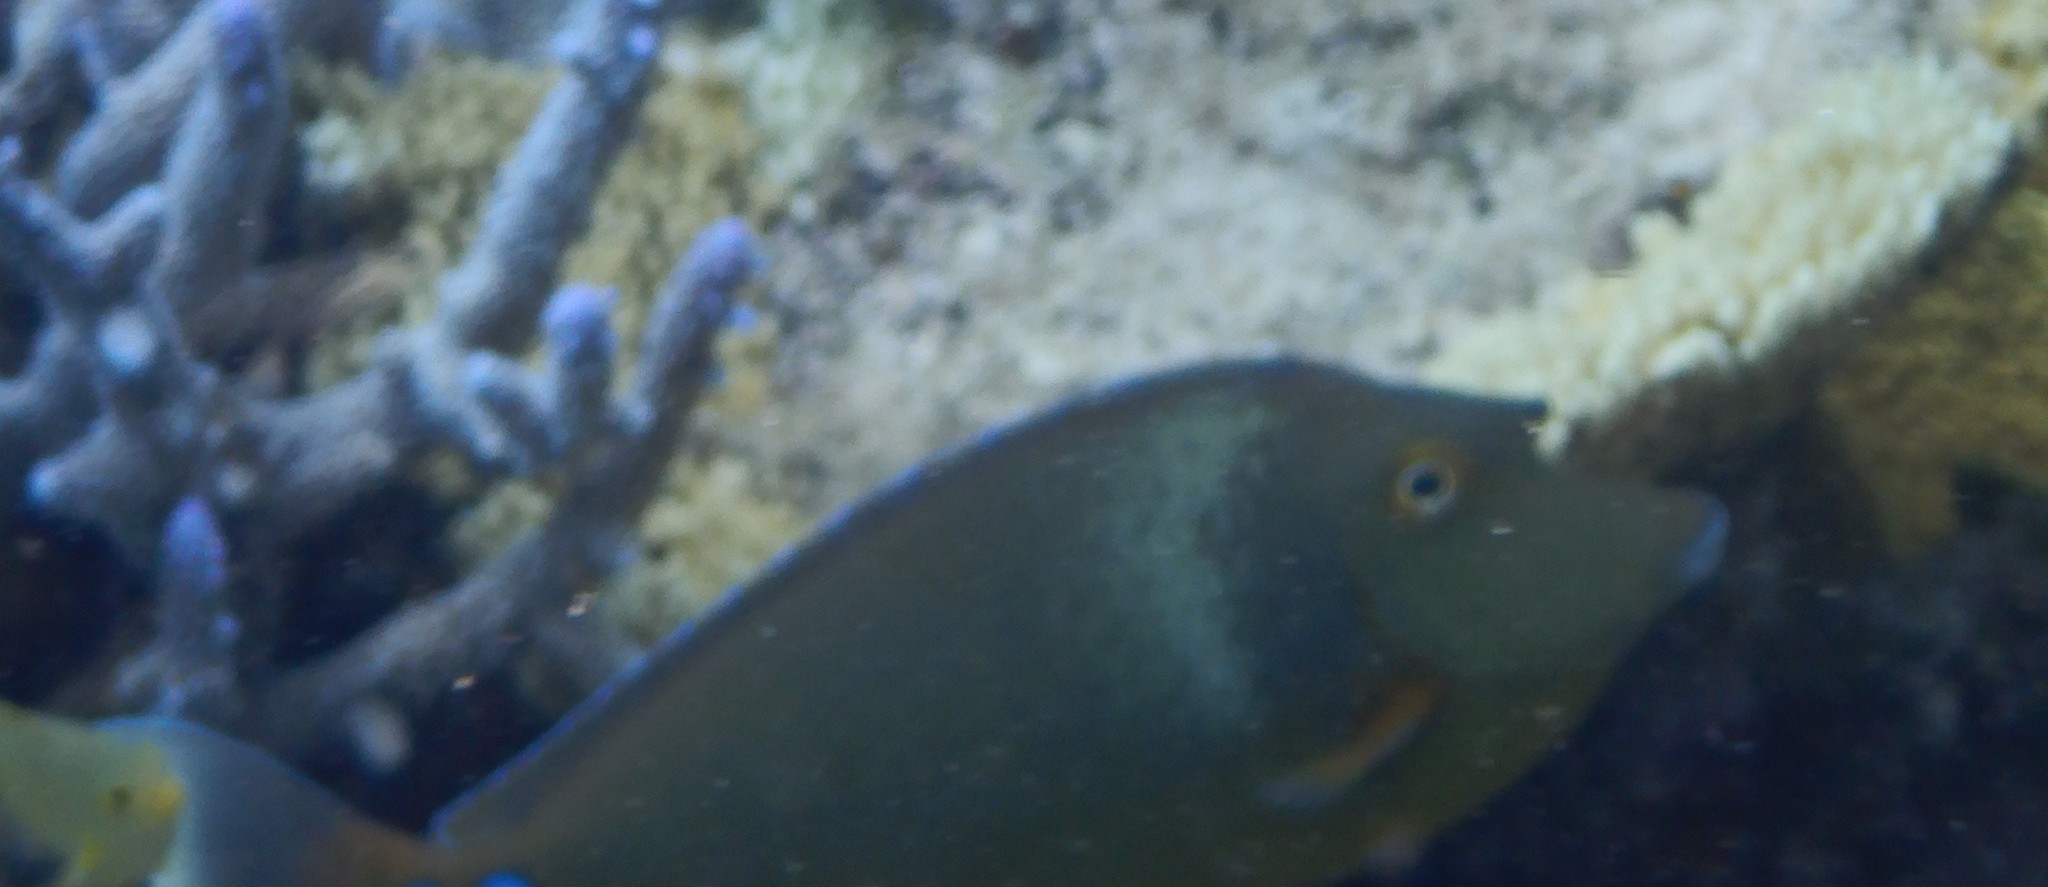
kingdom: Animalia
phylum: Chordata
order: Perciformes
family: Acanthuridae
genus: Naso
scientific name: Naso unicornis
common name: Bluespine unicornfish
